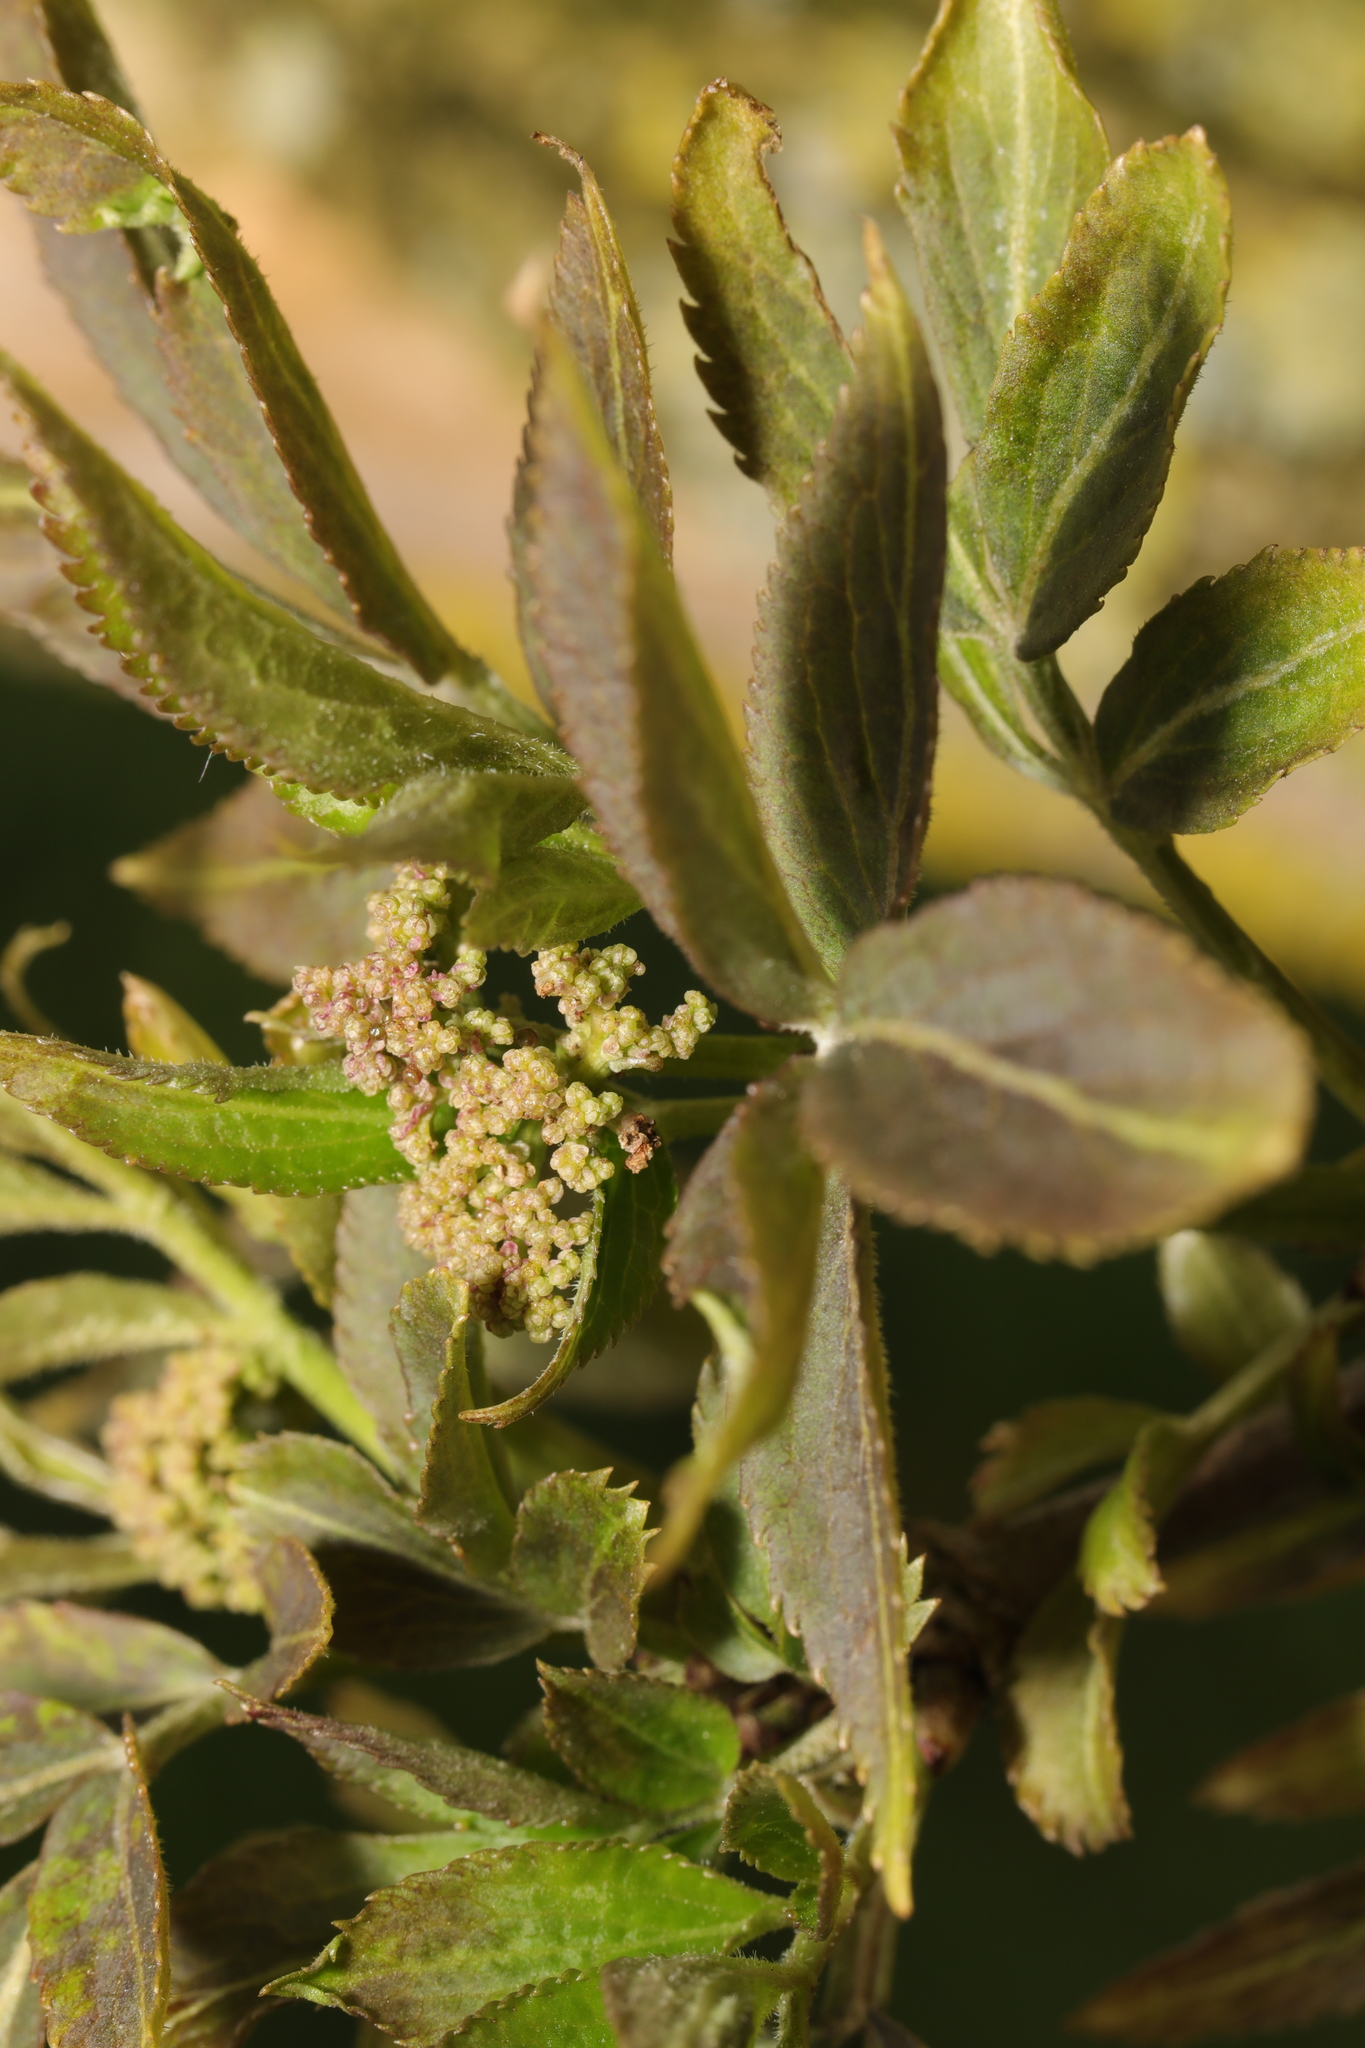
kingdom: Plantae
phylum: Tracheophyta
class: Magnoliopsida
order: Dipsacales
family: Viburnaceae
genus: Sambucus
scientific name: Sambucus nigra
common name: Elder
